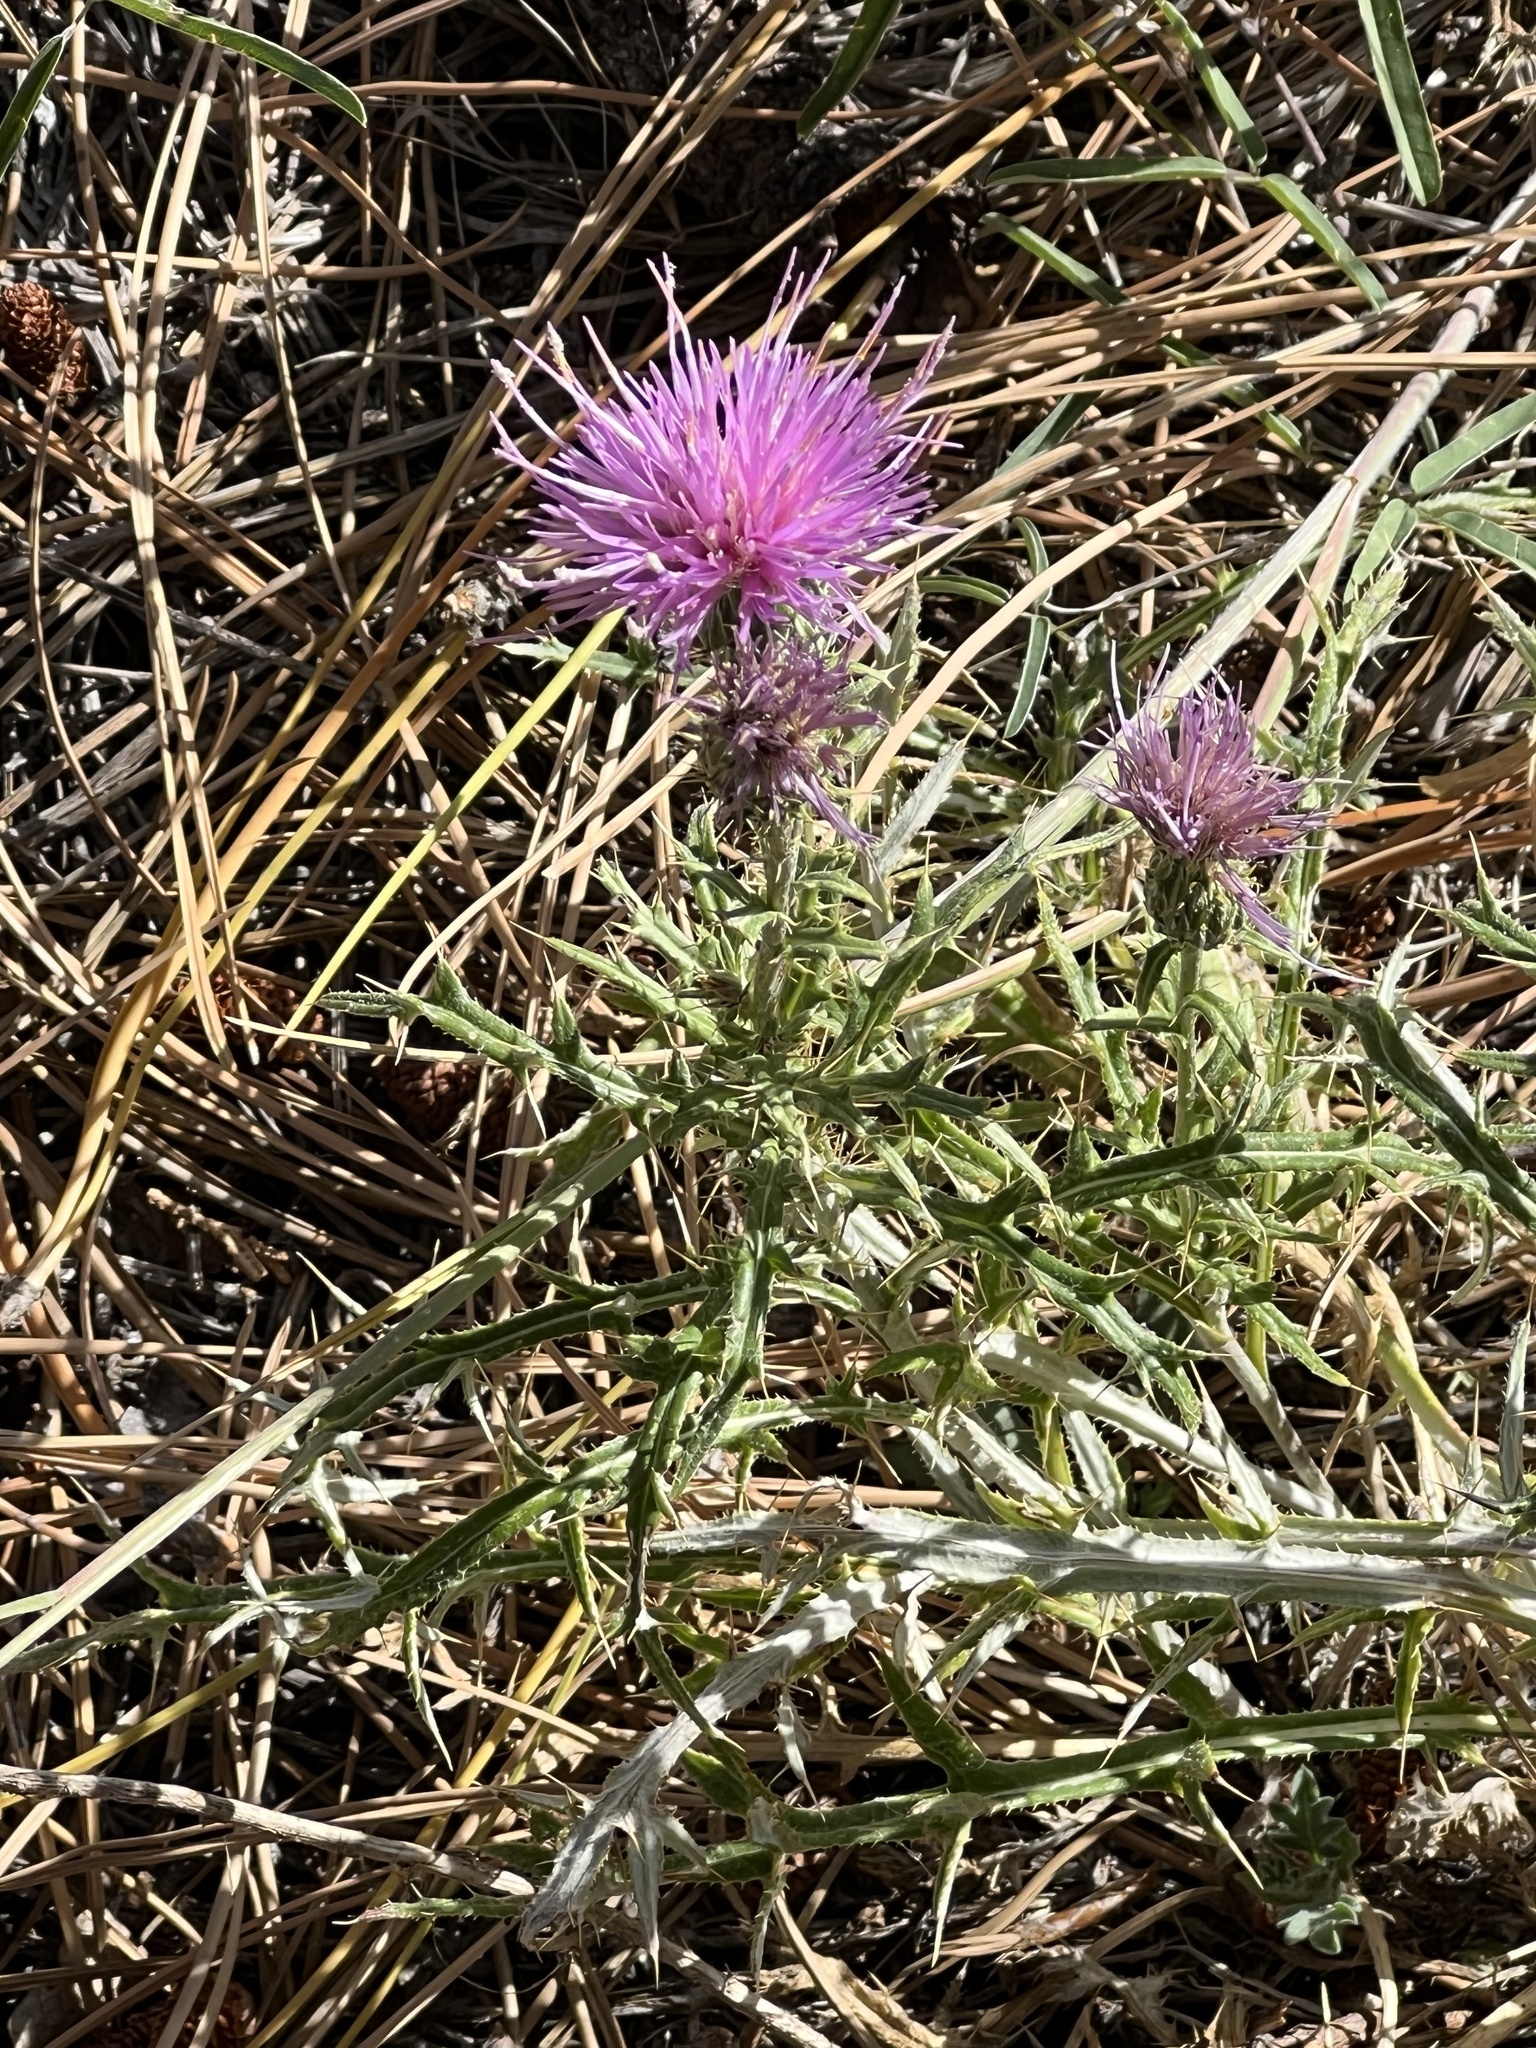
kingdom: Plantae
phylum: Tracheophyta
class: Magnoliopsida
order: Asterales
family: Asteraceae
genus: Cirsium
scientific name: Cirsium wheeleri
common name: Wheeler's thistle
